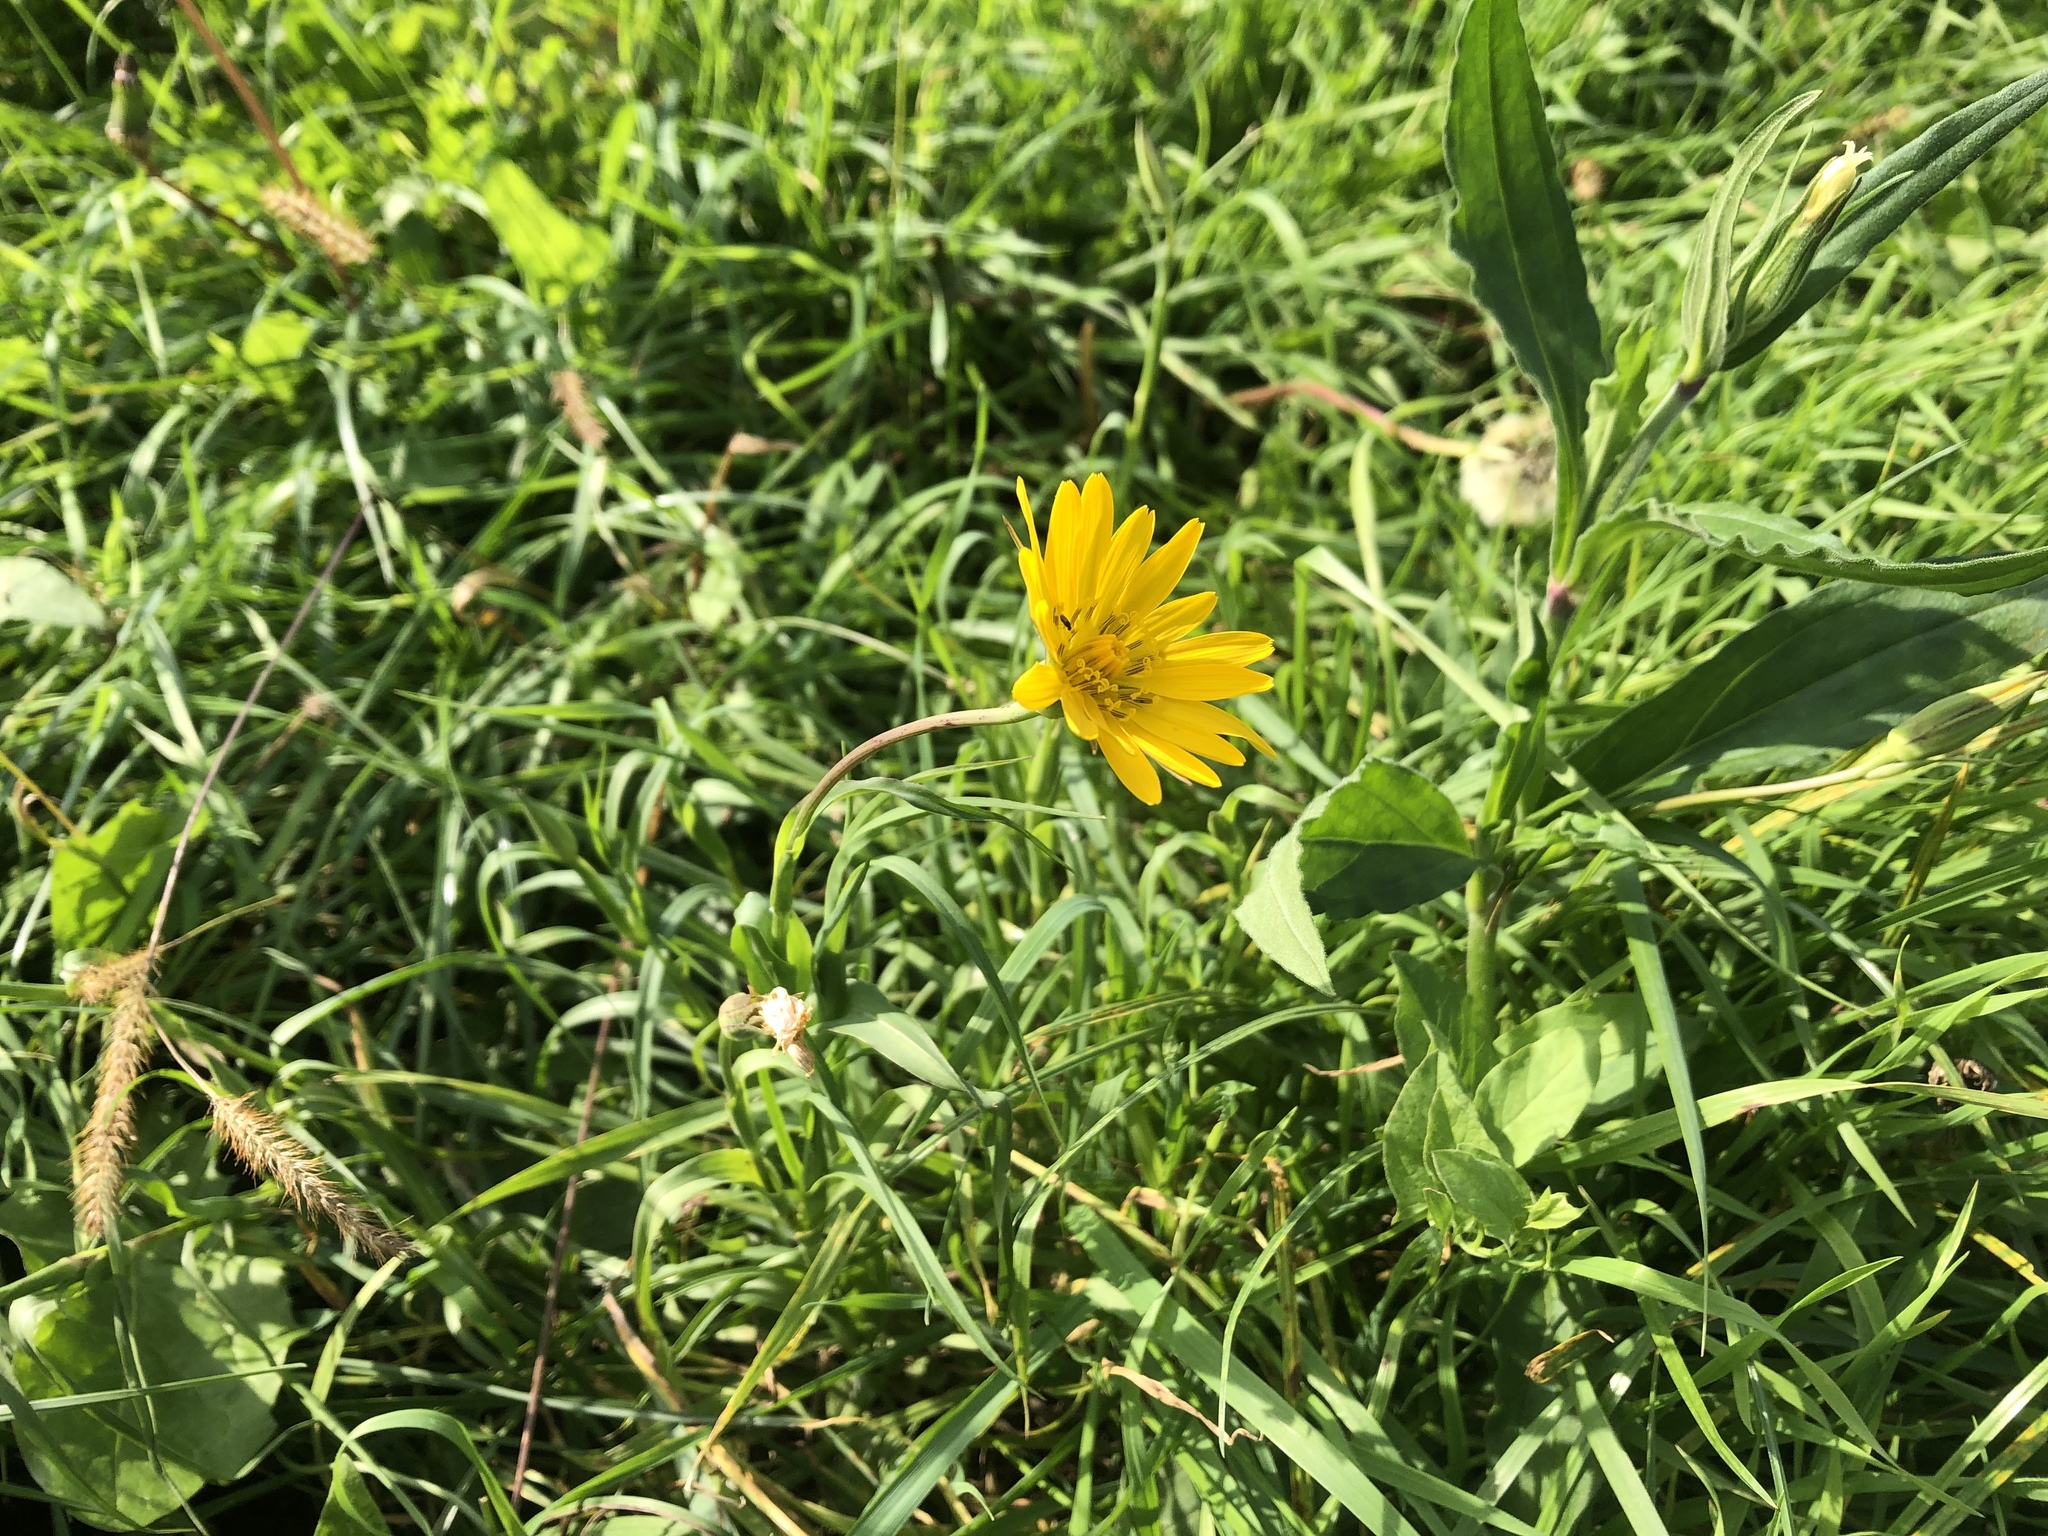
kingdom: Plantae
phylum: Tracheophyta
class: Magnoliopsida
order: Asterales
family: Asteraceae
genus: Tragopogon
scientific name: Tragopogon orientalis
